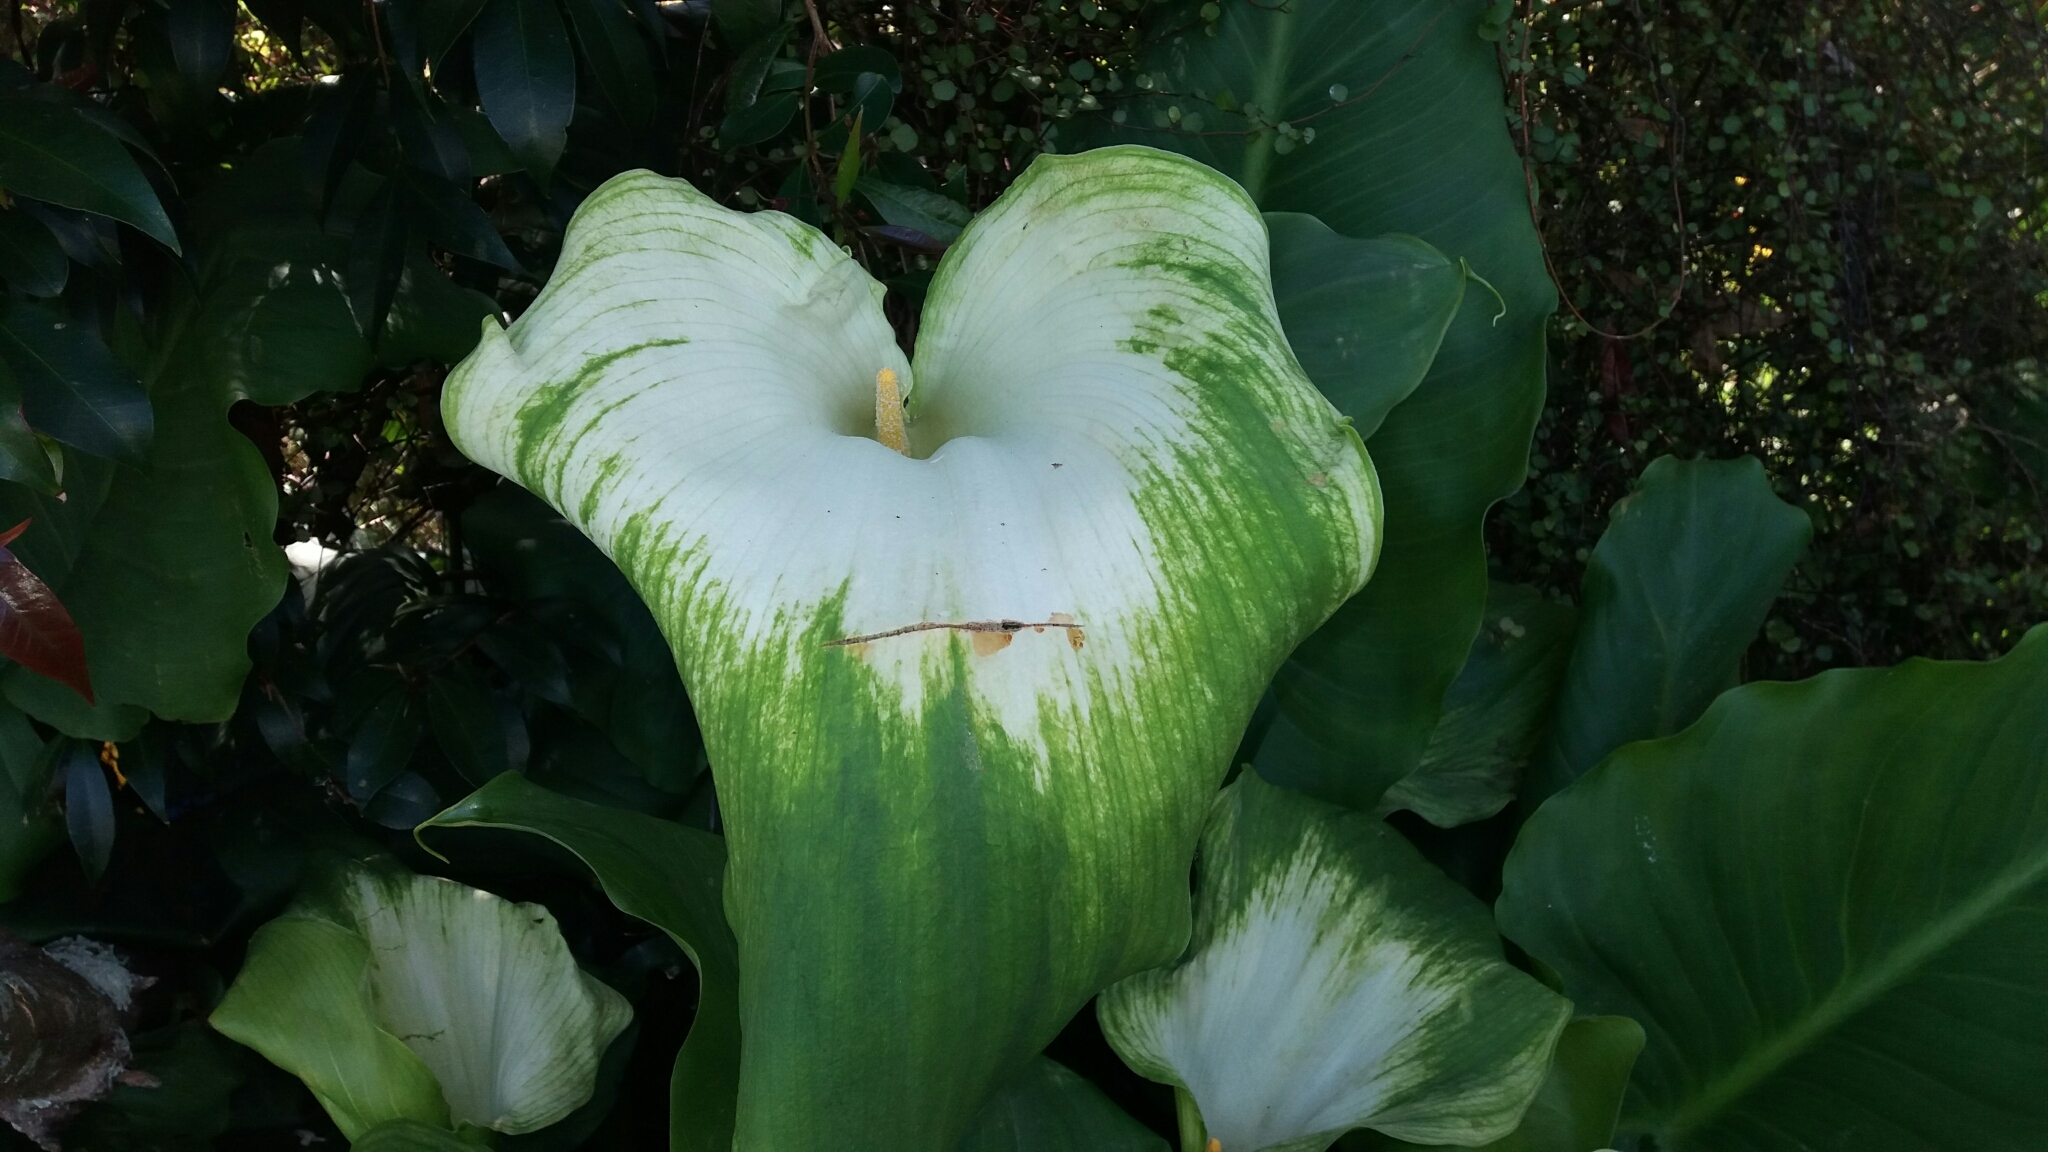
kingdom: Plantae
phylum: Tracheophyta
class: Liliopsida
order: Alismatales
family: Araceae
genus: Zantedeschia
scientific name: Zantedeschia aethiopica
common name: Altar-lily
